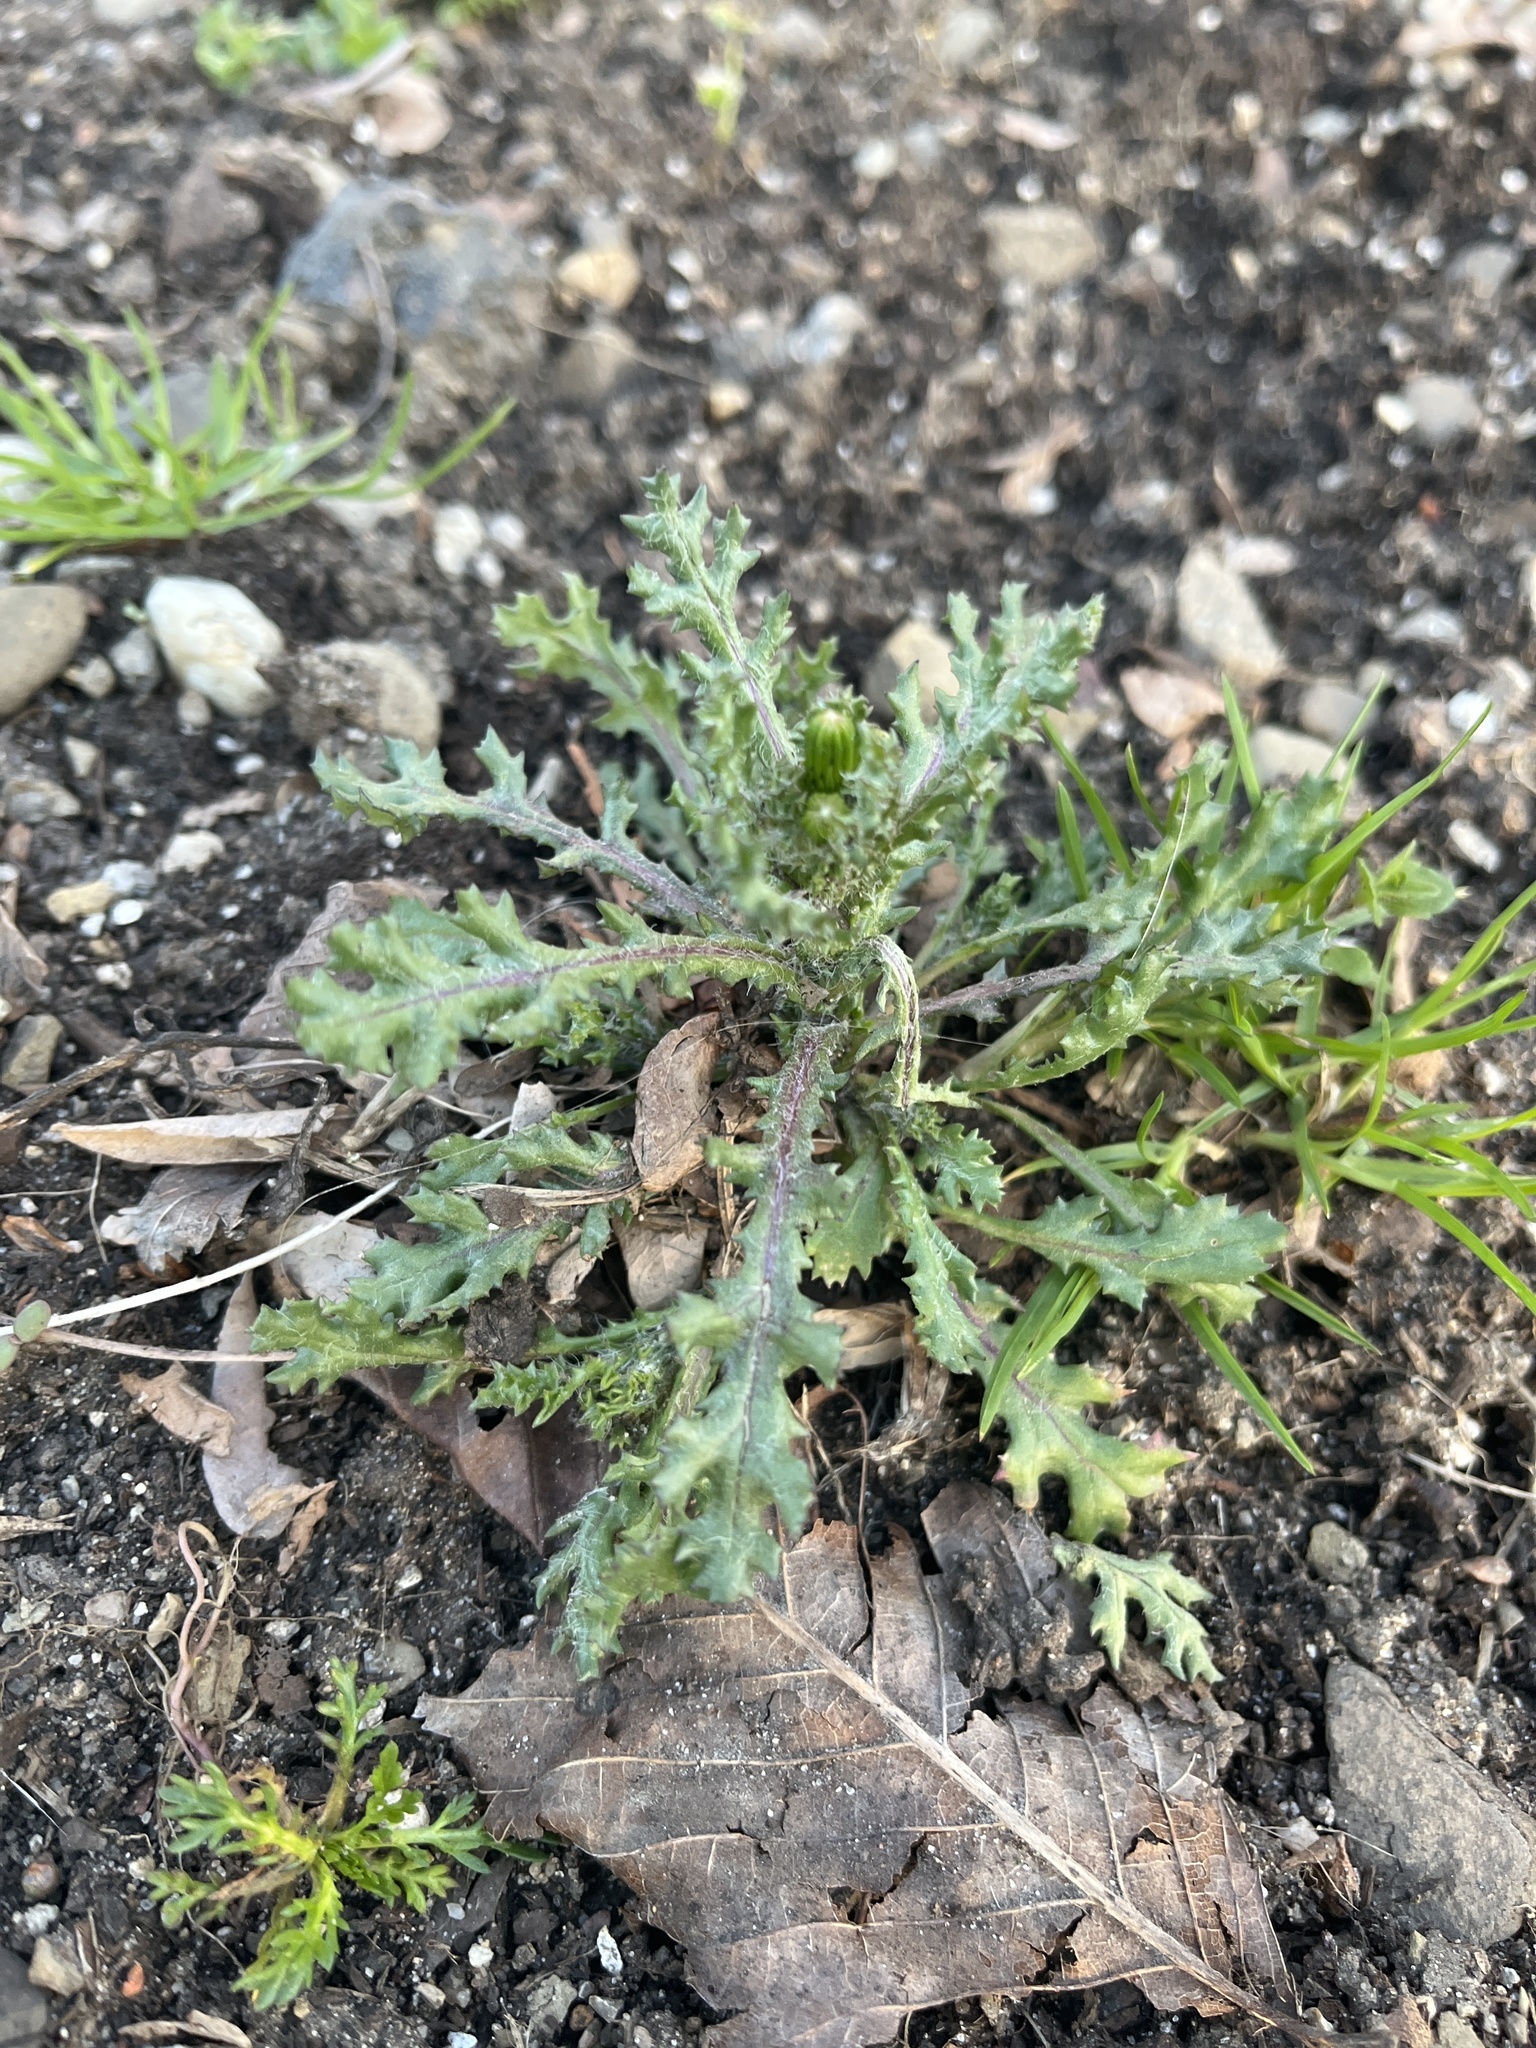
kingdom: Plantae
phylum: Tracheophyta
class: Magnoliopsida
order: Asterales
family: Asteraceae
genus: Senecio
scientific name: Senecio vulgaris
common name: Old-man-in-the-spring
